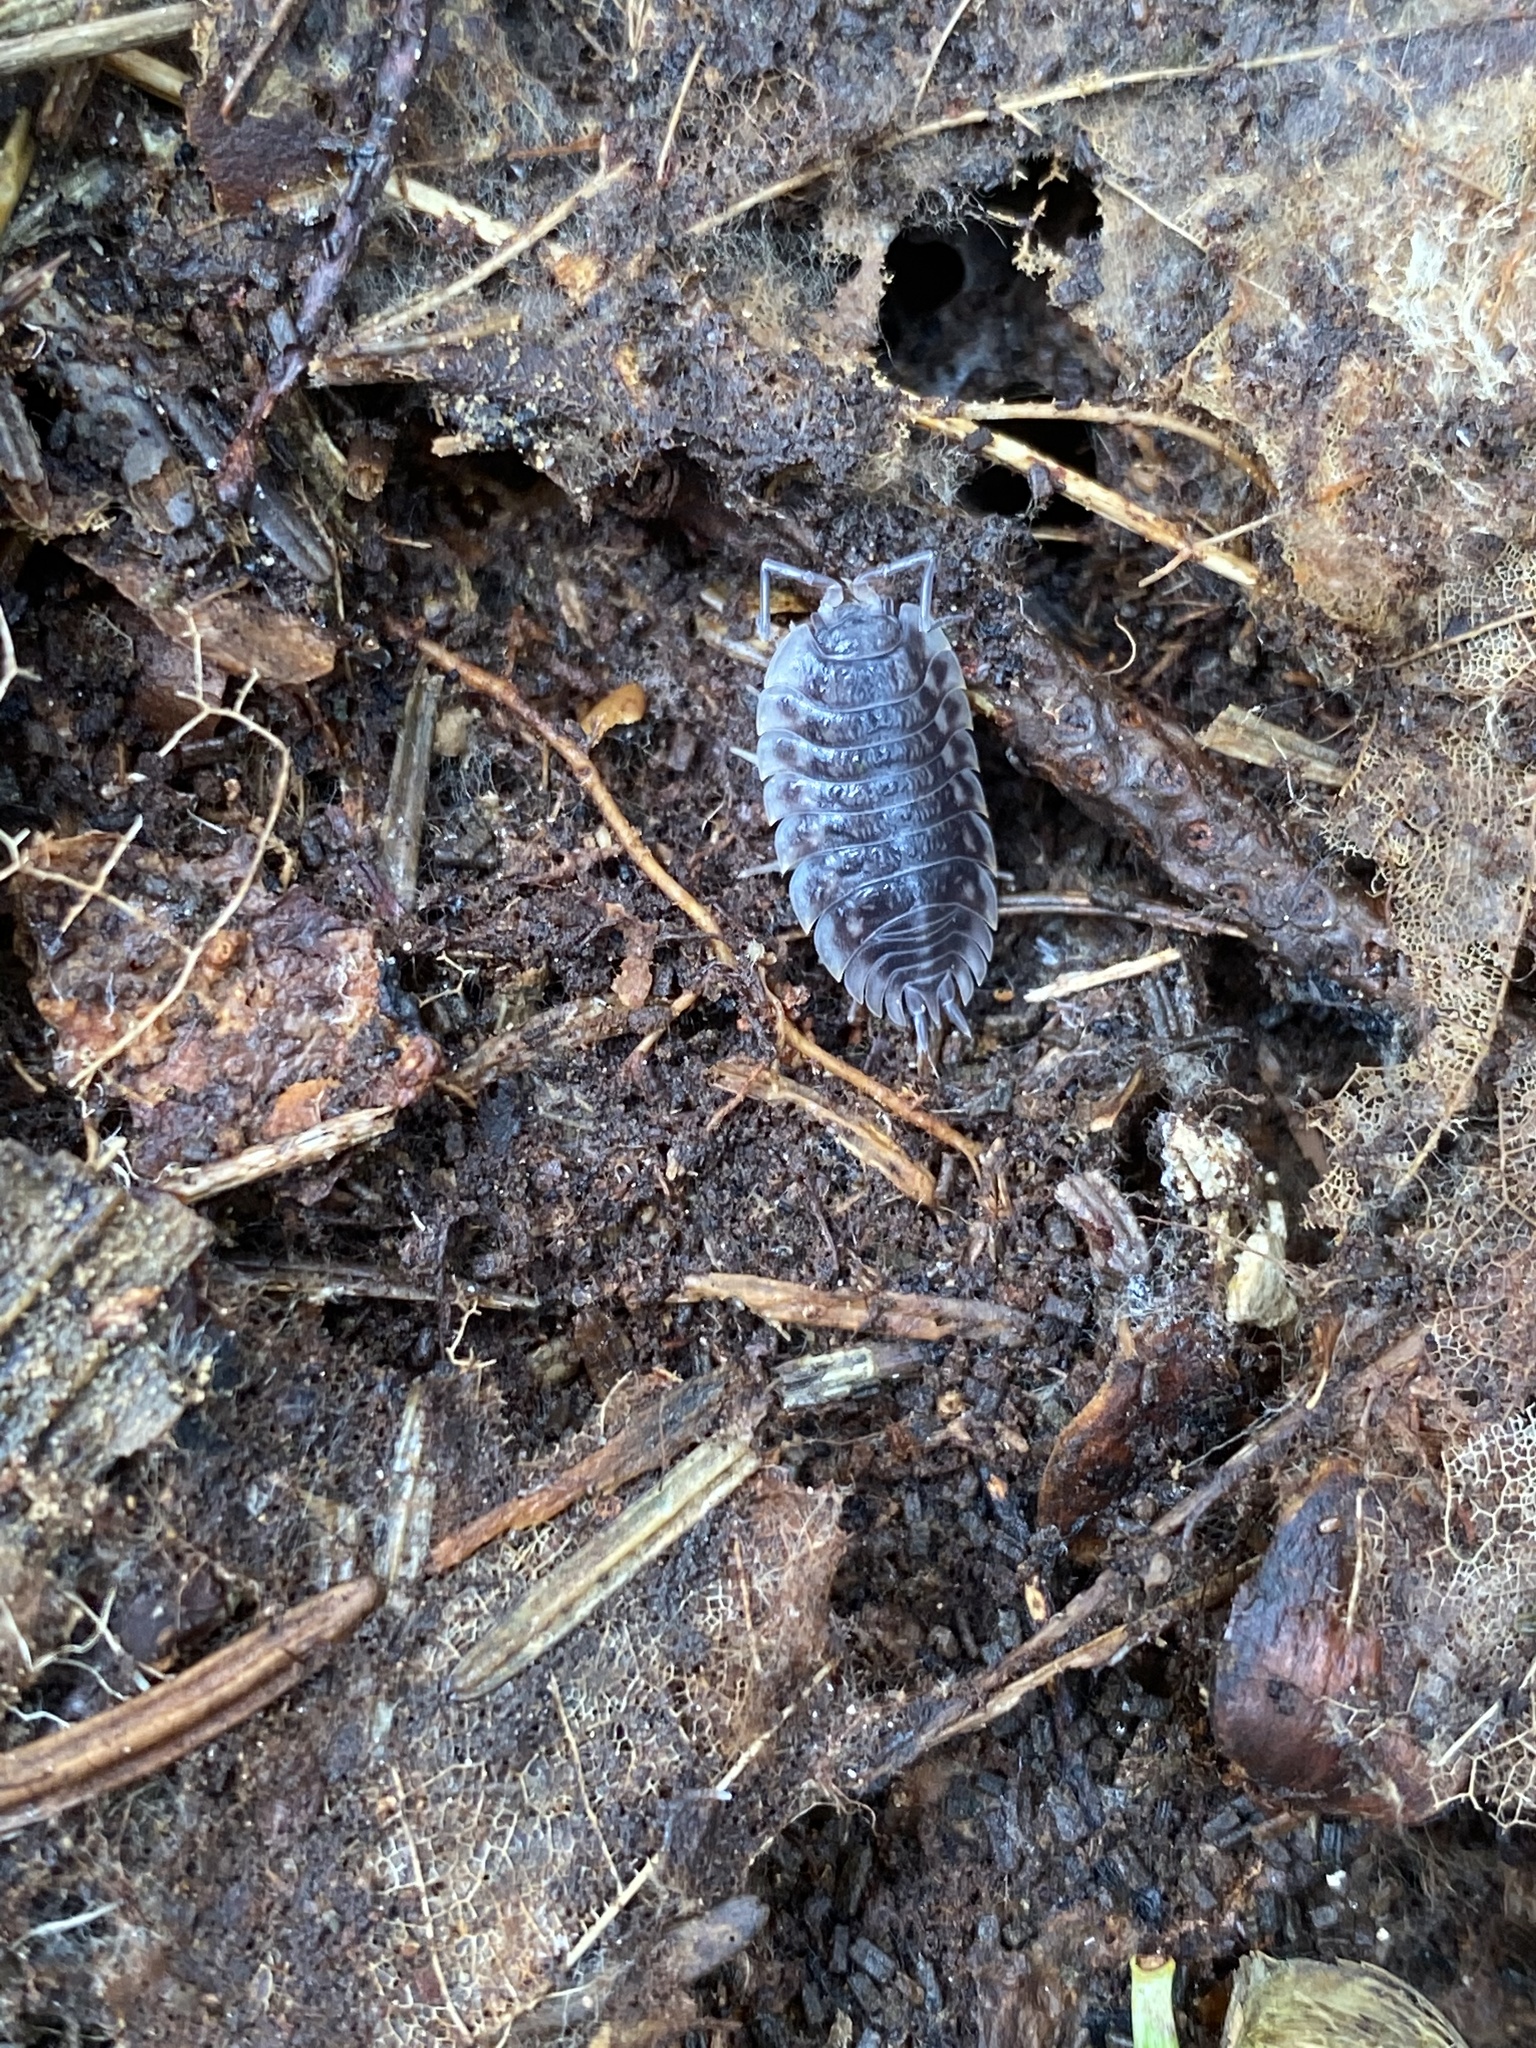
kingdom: Animalia
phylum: Arthropoda
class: Malacostraca
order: Isopoda
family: Oniscidae
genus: Oniscus
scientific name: Oniscus asellus
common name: Common shiny woodlouse
